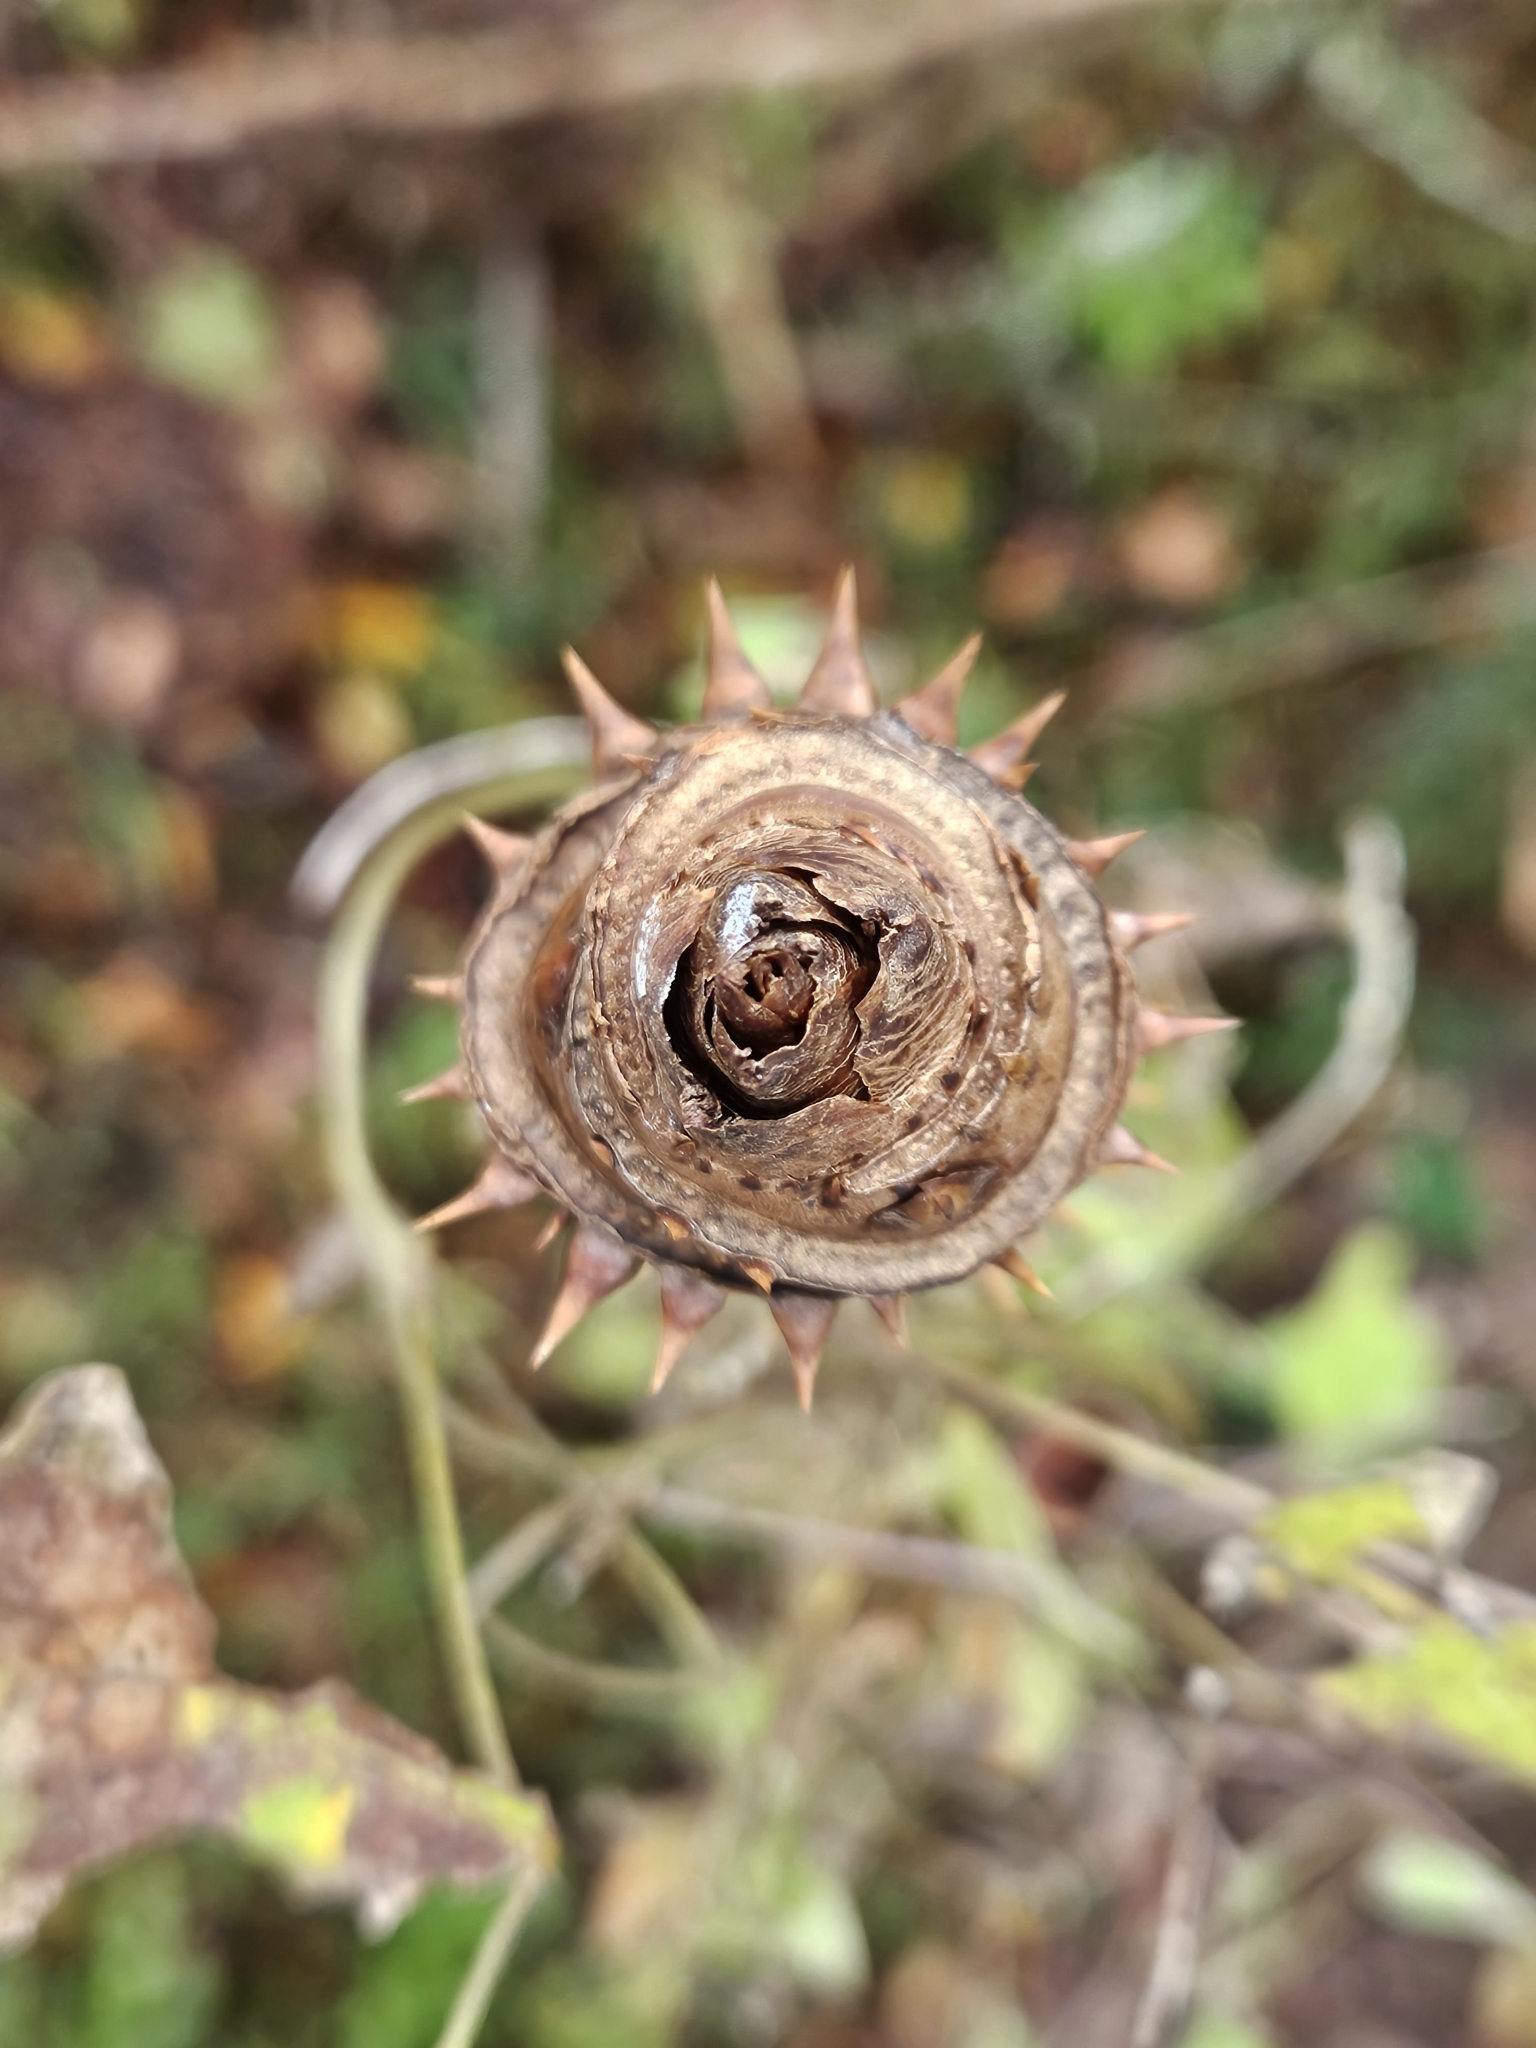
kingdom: Plantae
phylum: Tracheophyta
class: Magnoliopsida
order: Apiales
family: Araliaceae
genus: Aralia
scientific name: Aralia spinosa
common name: Hercules'-club
